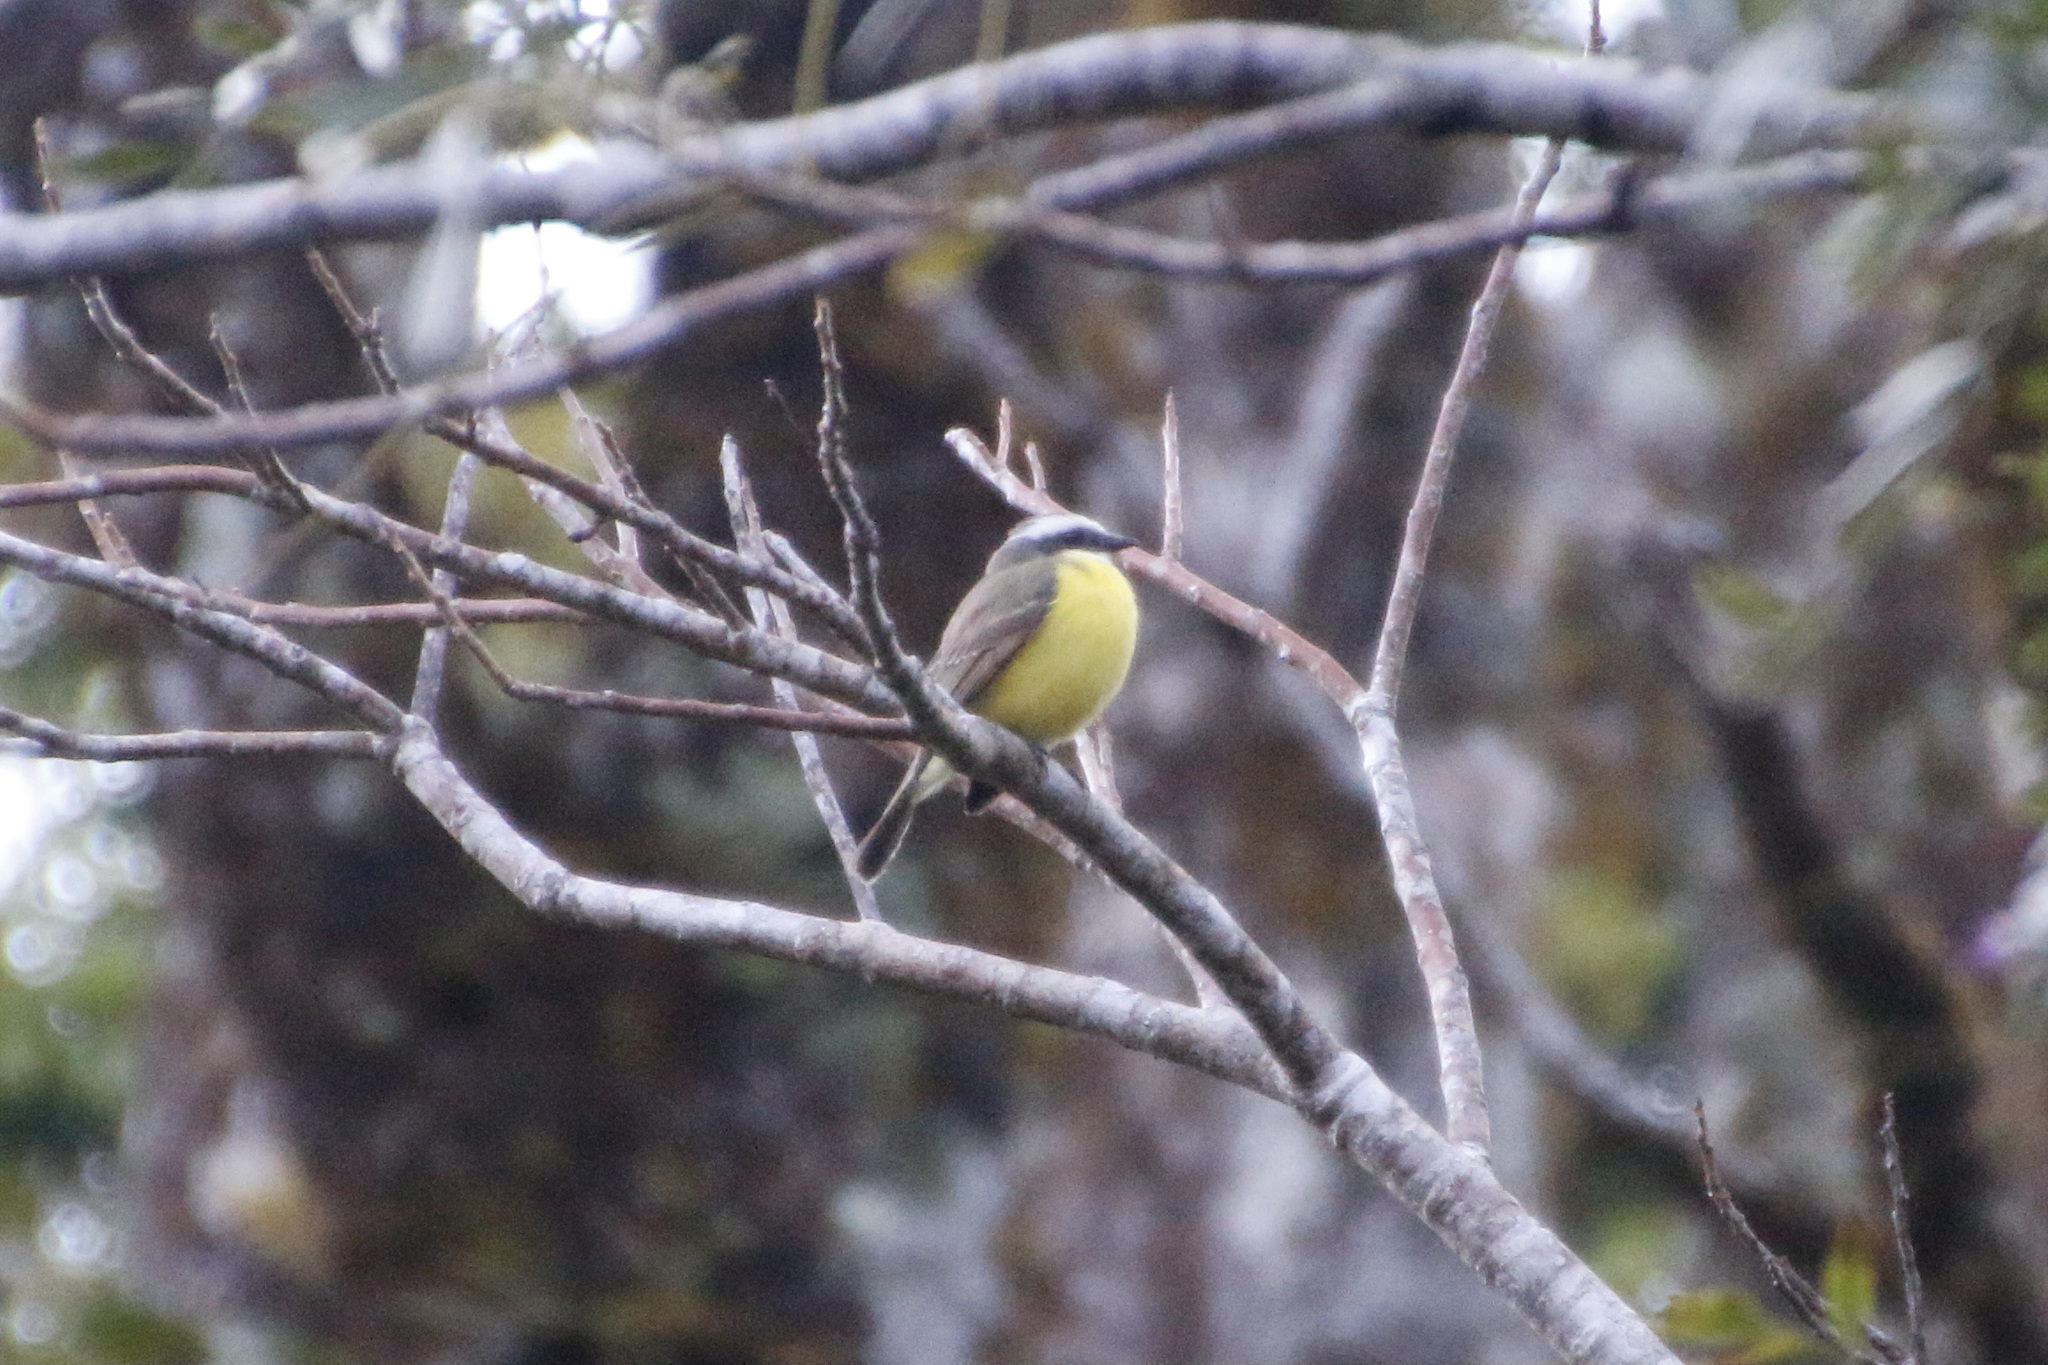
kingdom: Animalia
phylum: Chordata
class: Aves
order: Passeriformes
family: Tyrannidae
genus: Myiozetetes
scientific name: Myiozetetes similis
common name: Social flycatcher
